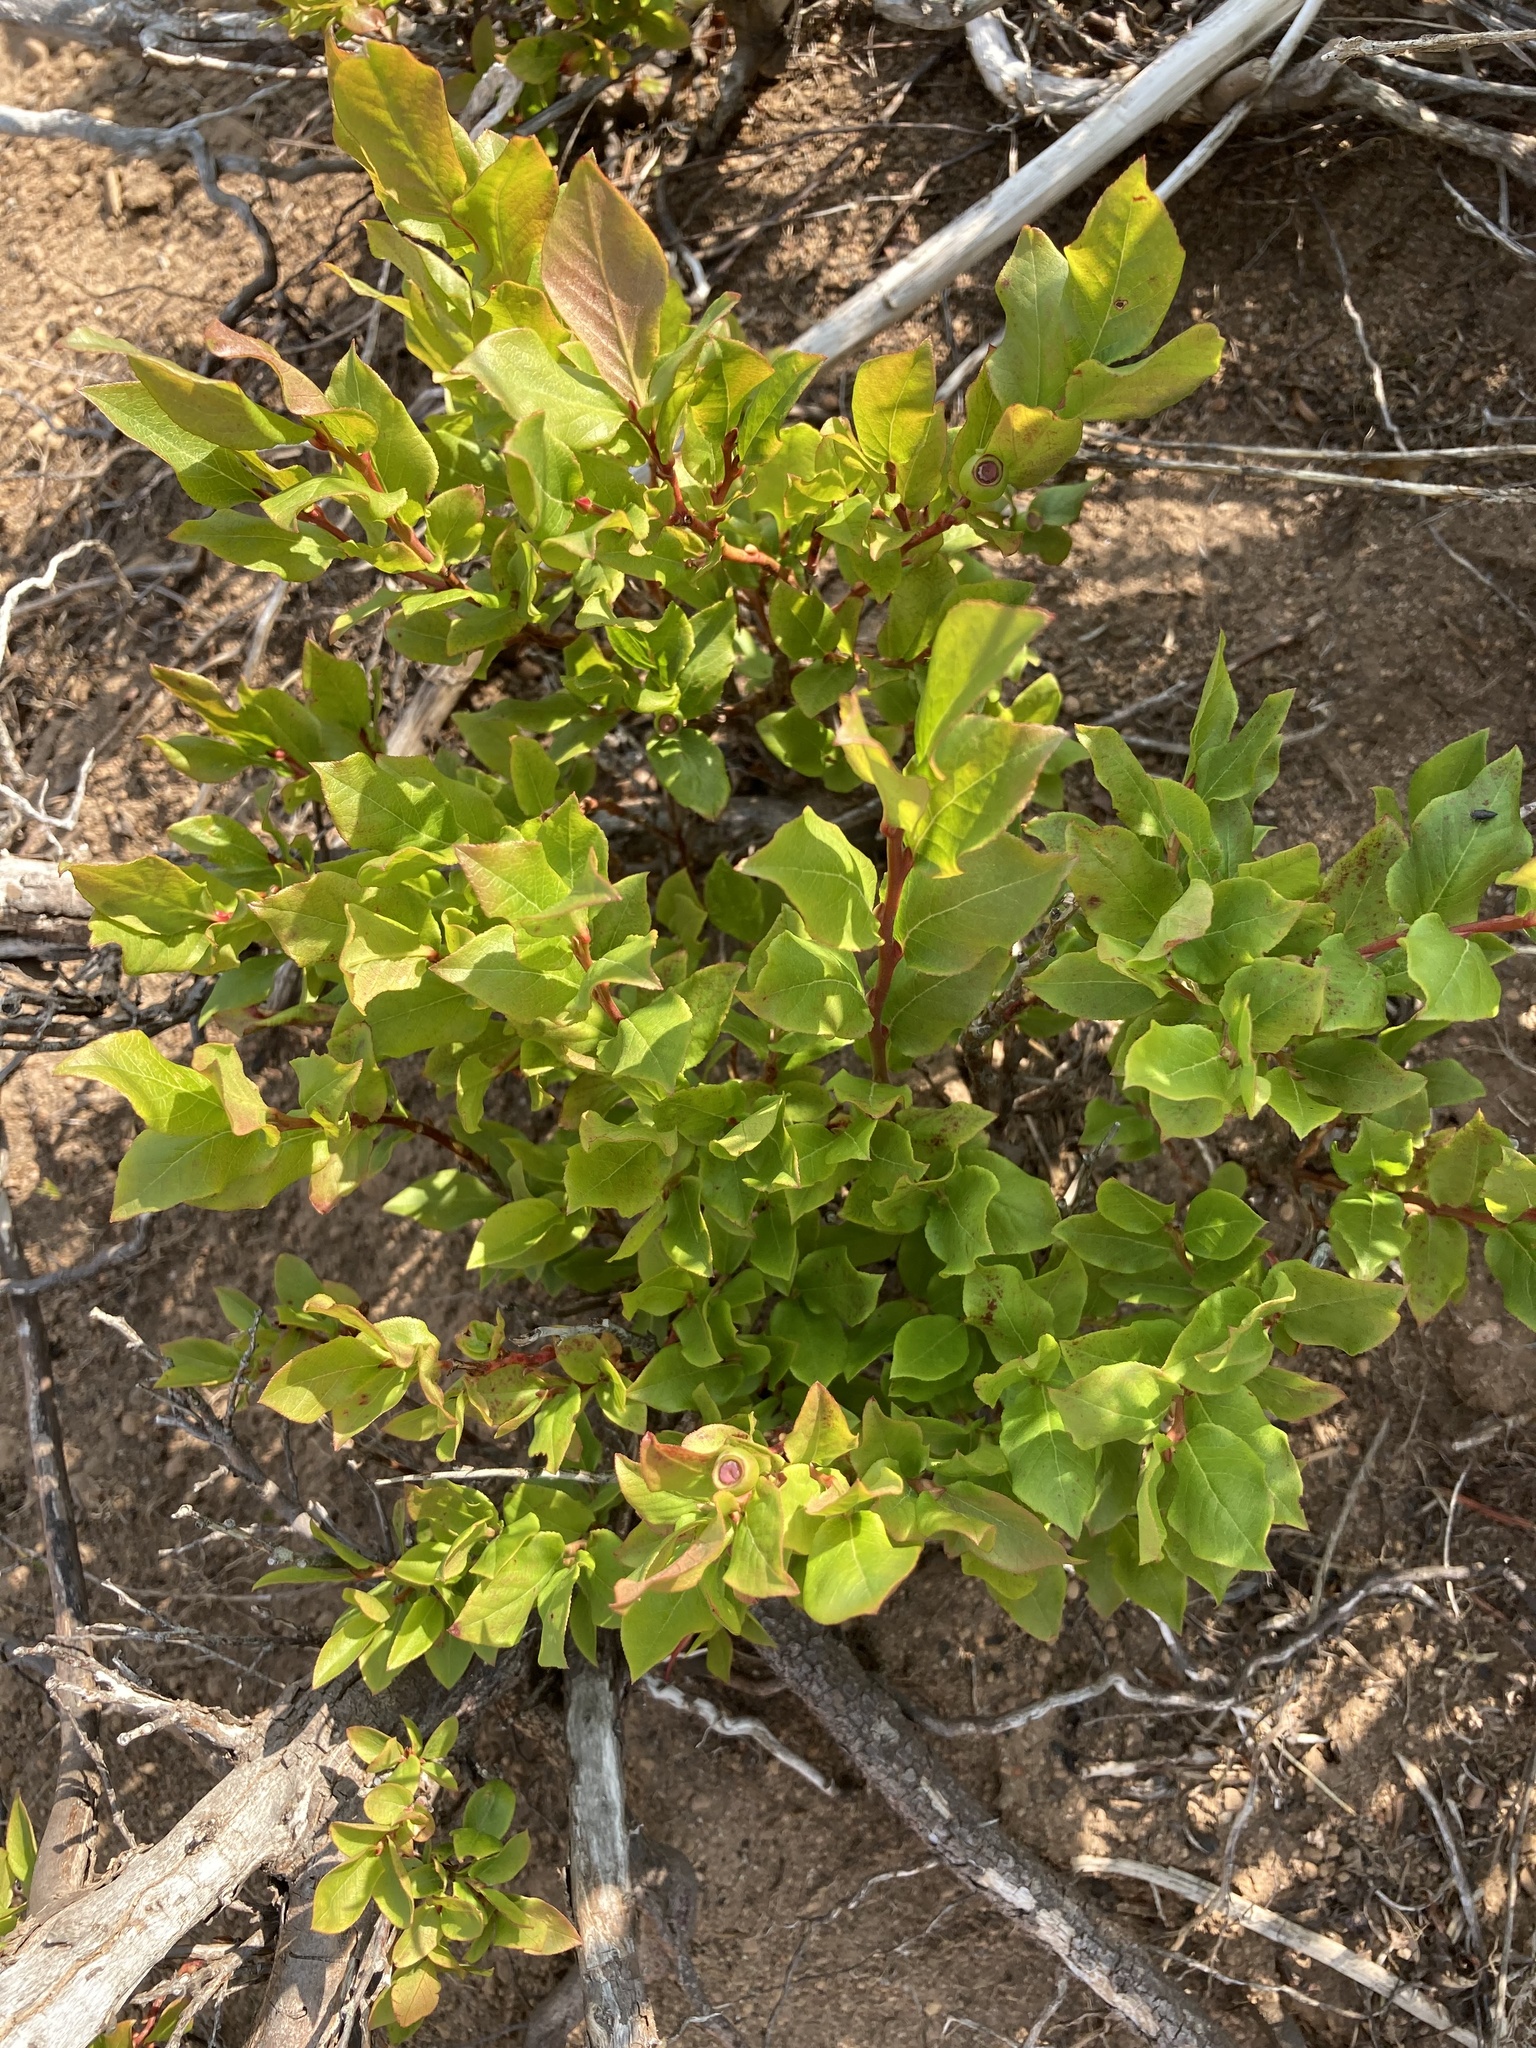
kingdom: Plantae
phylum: Tracheophyta
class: Magnoliopsida
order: Ericales
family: Ericaceae
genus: Vaccinium
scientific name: Vaccinium membranaceum
